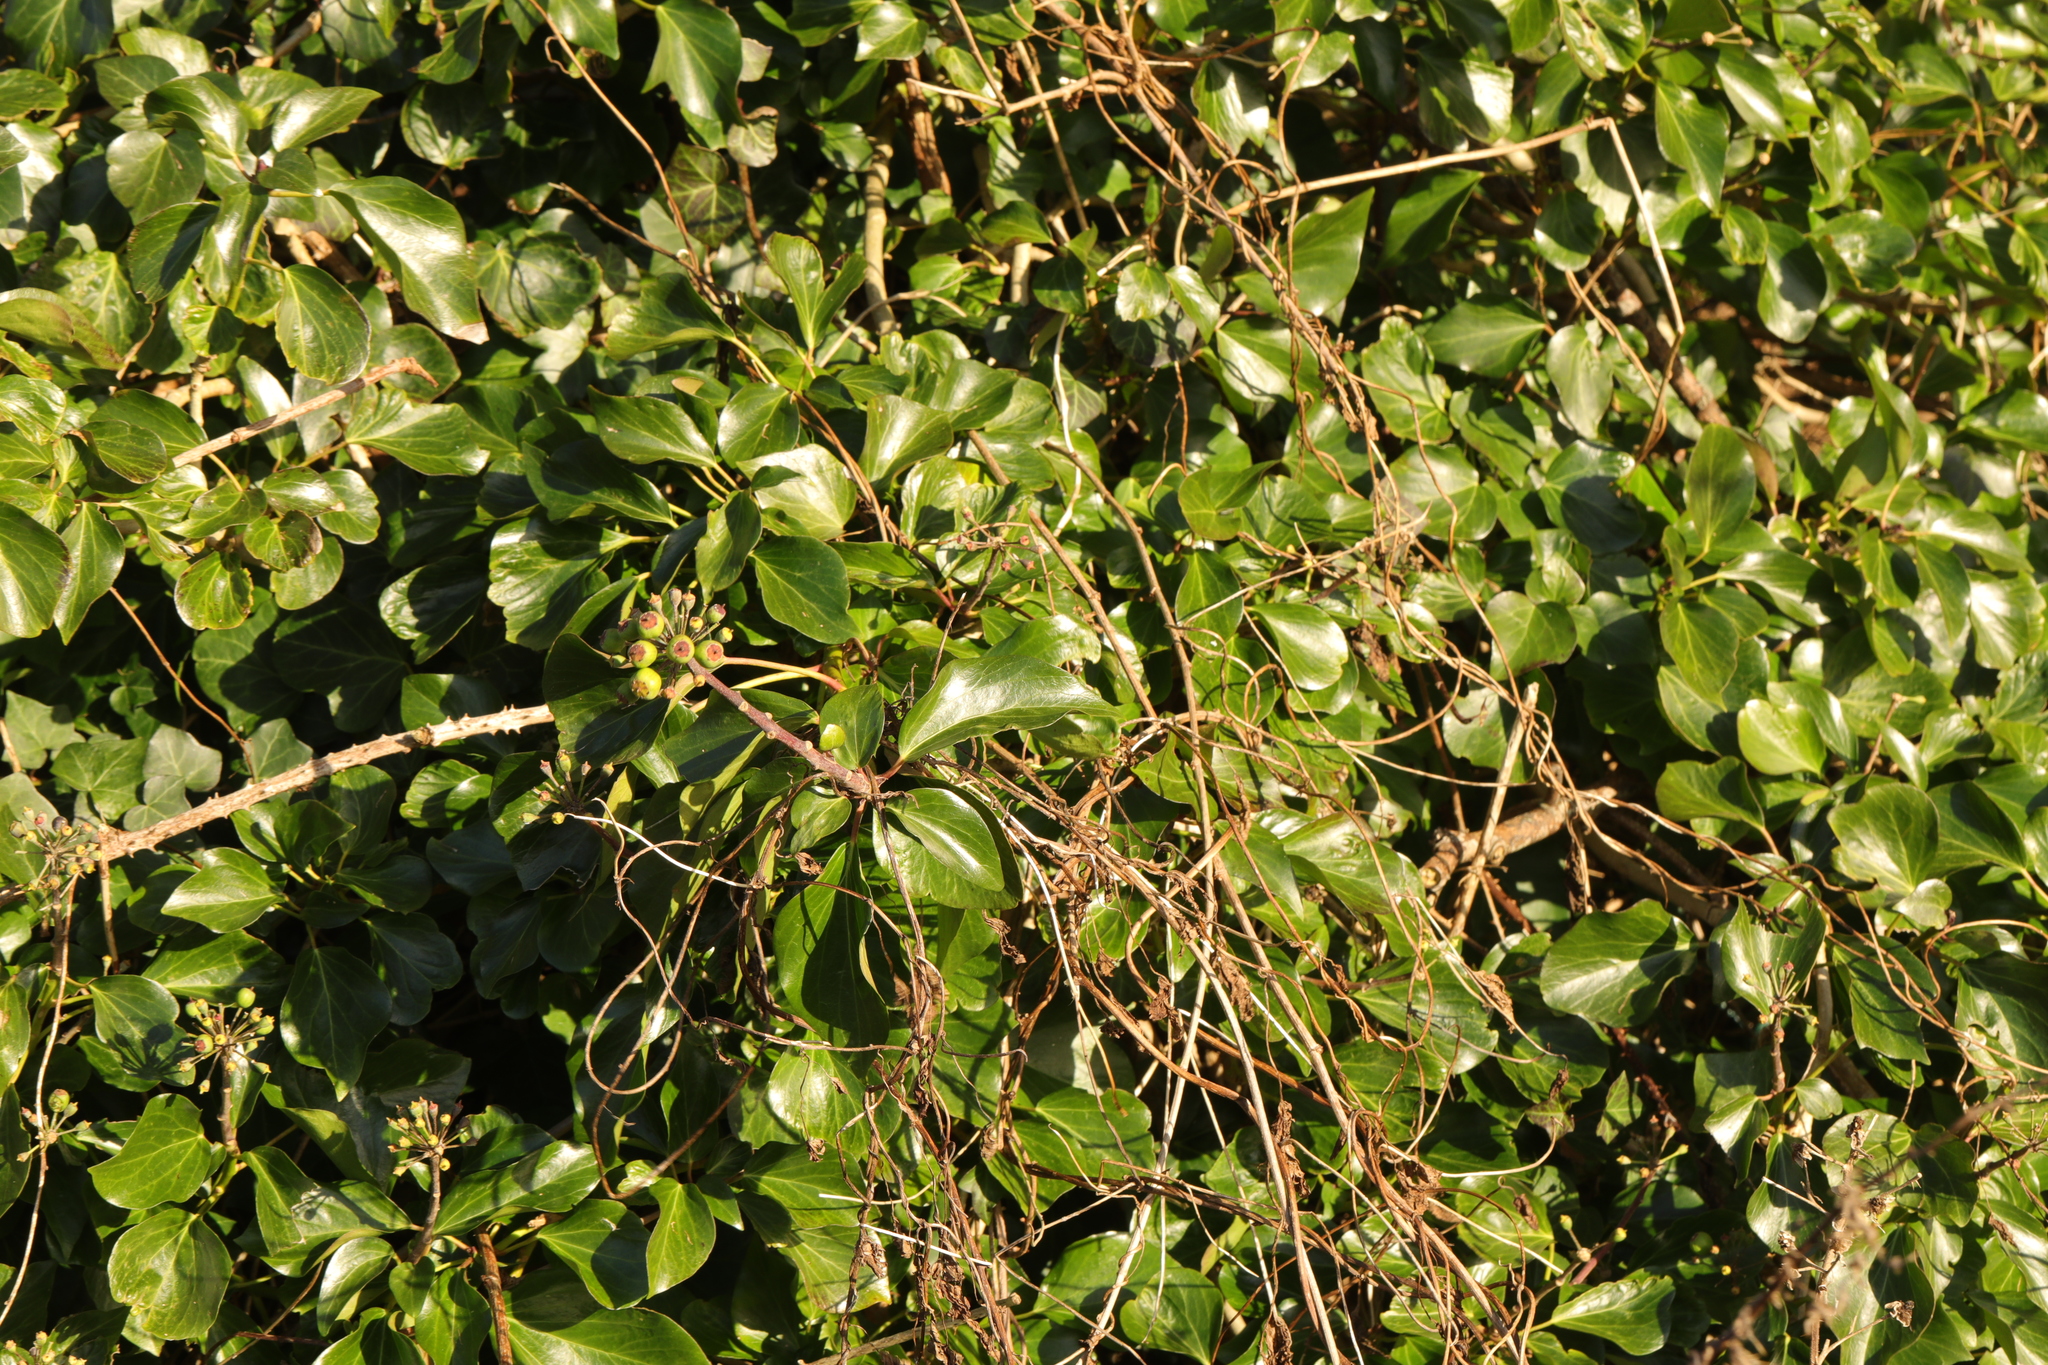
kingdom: Plantae
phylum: Tracheophyta
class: Magnoliopsida
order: Apiales
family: Araliaceae
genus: Hedera
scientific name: Hedera helix
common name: Ivy
